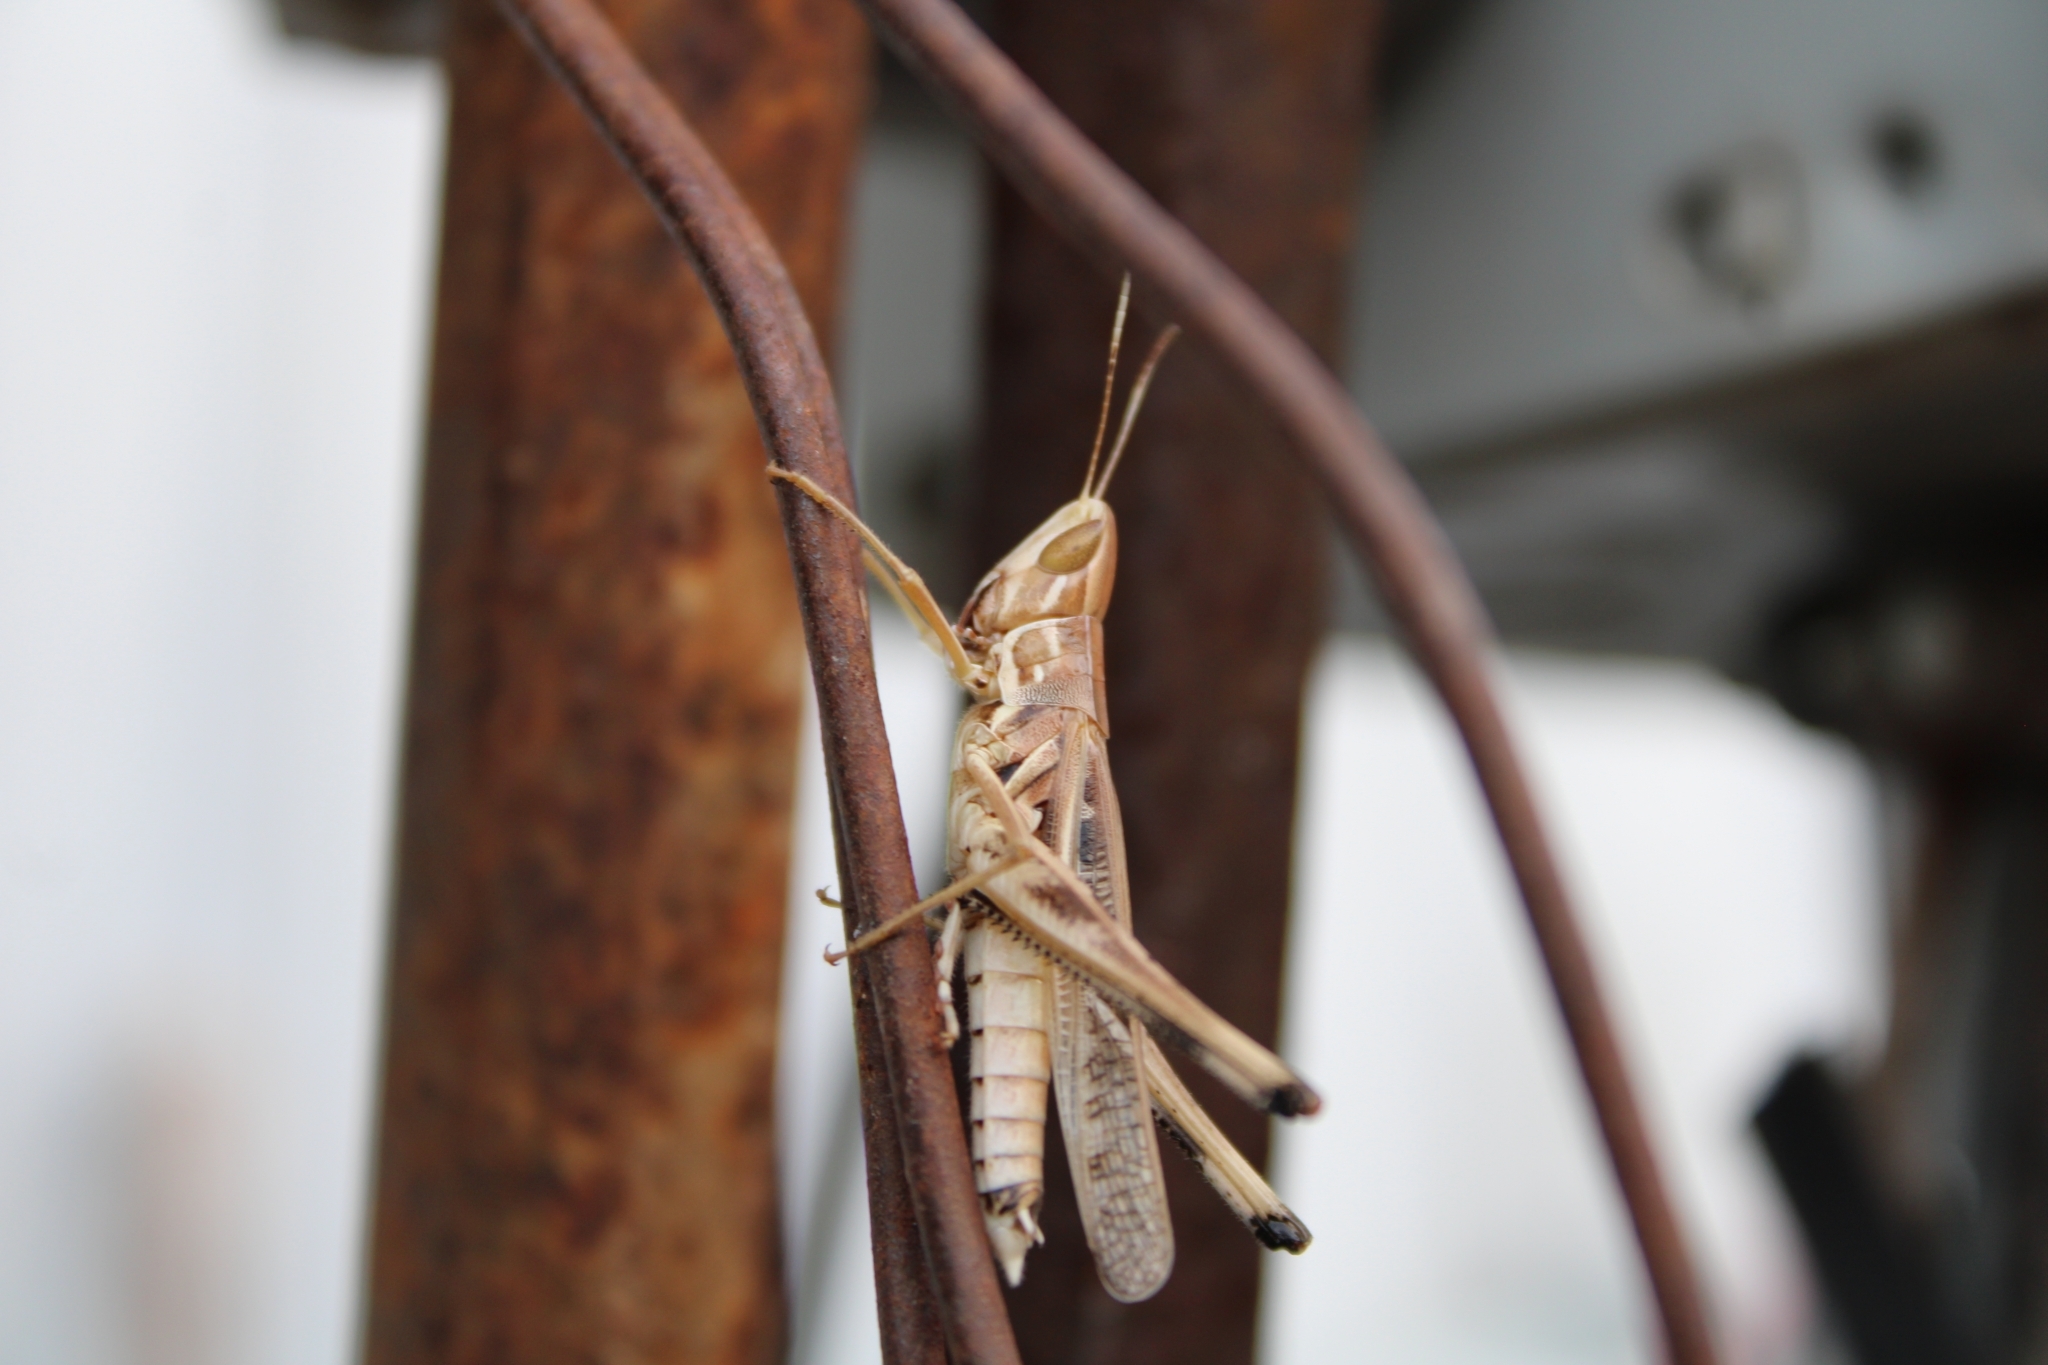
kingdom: Animalia
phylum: Arthropoda
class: Insecta
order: Orthoptera
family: Acrididae
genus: Syrbula
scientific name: Syrbula admirabilis
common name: Handsome grasshopper
